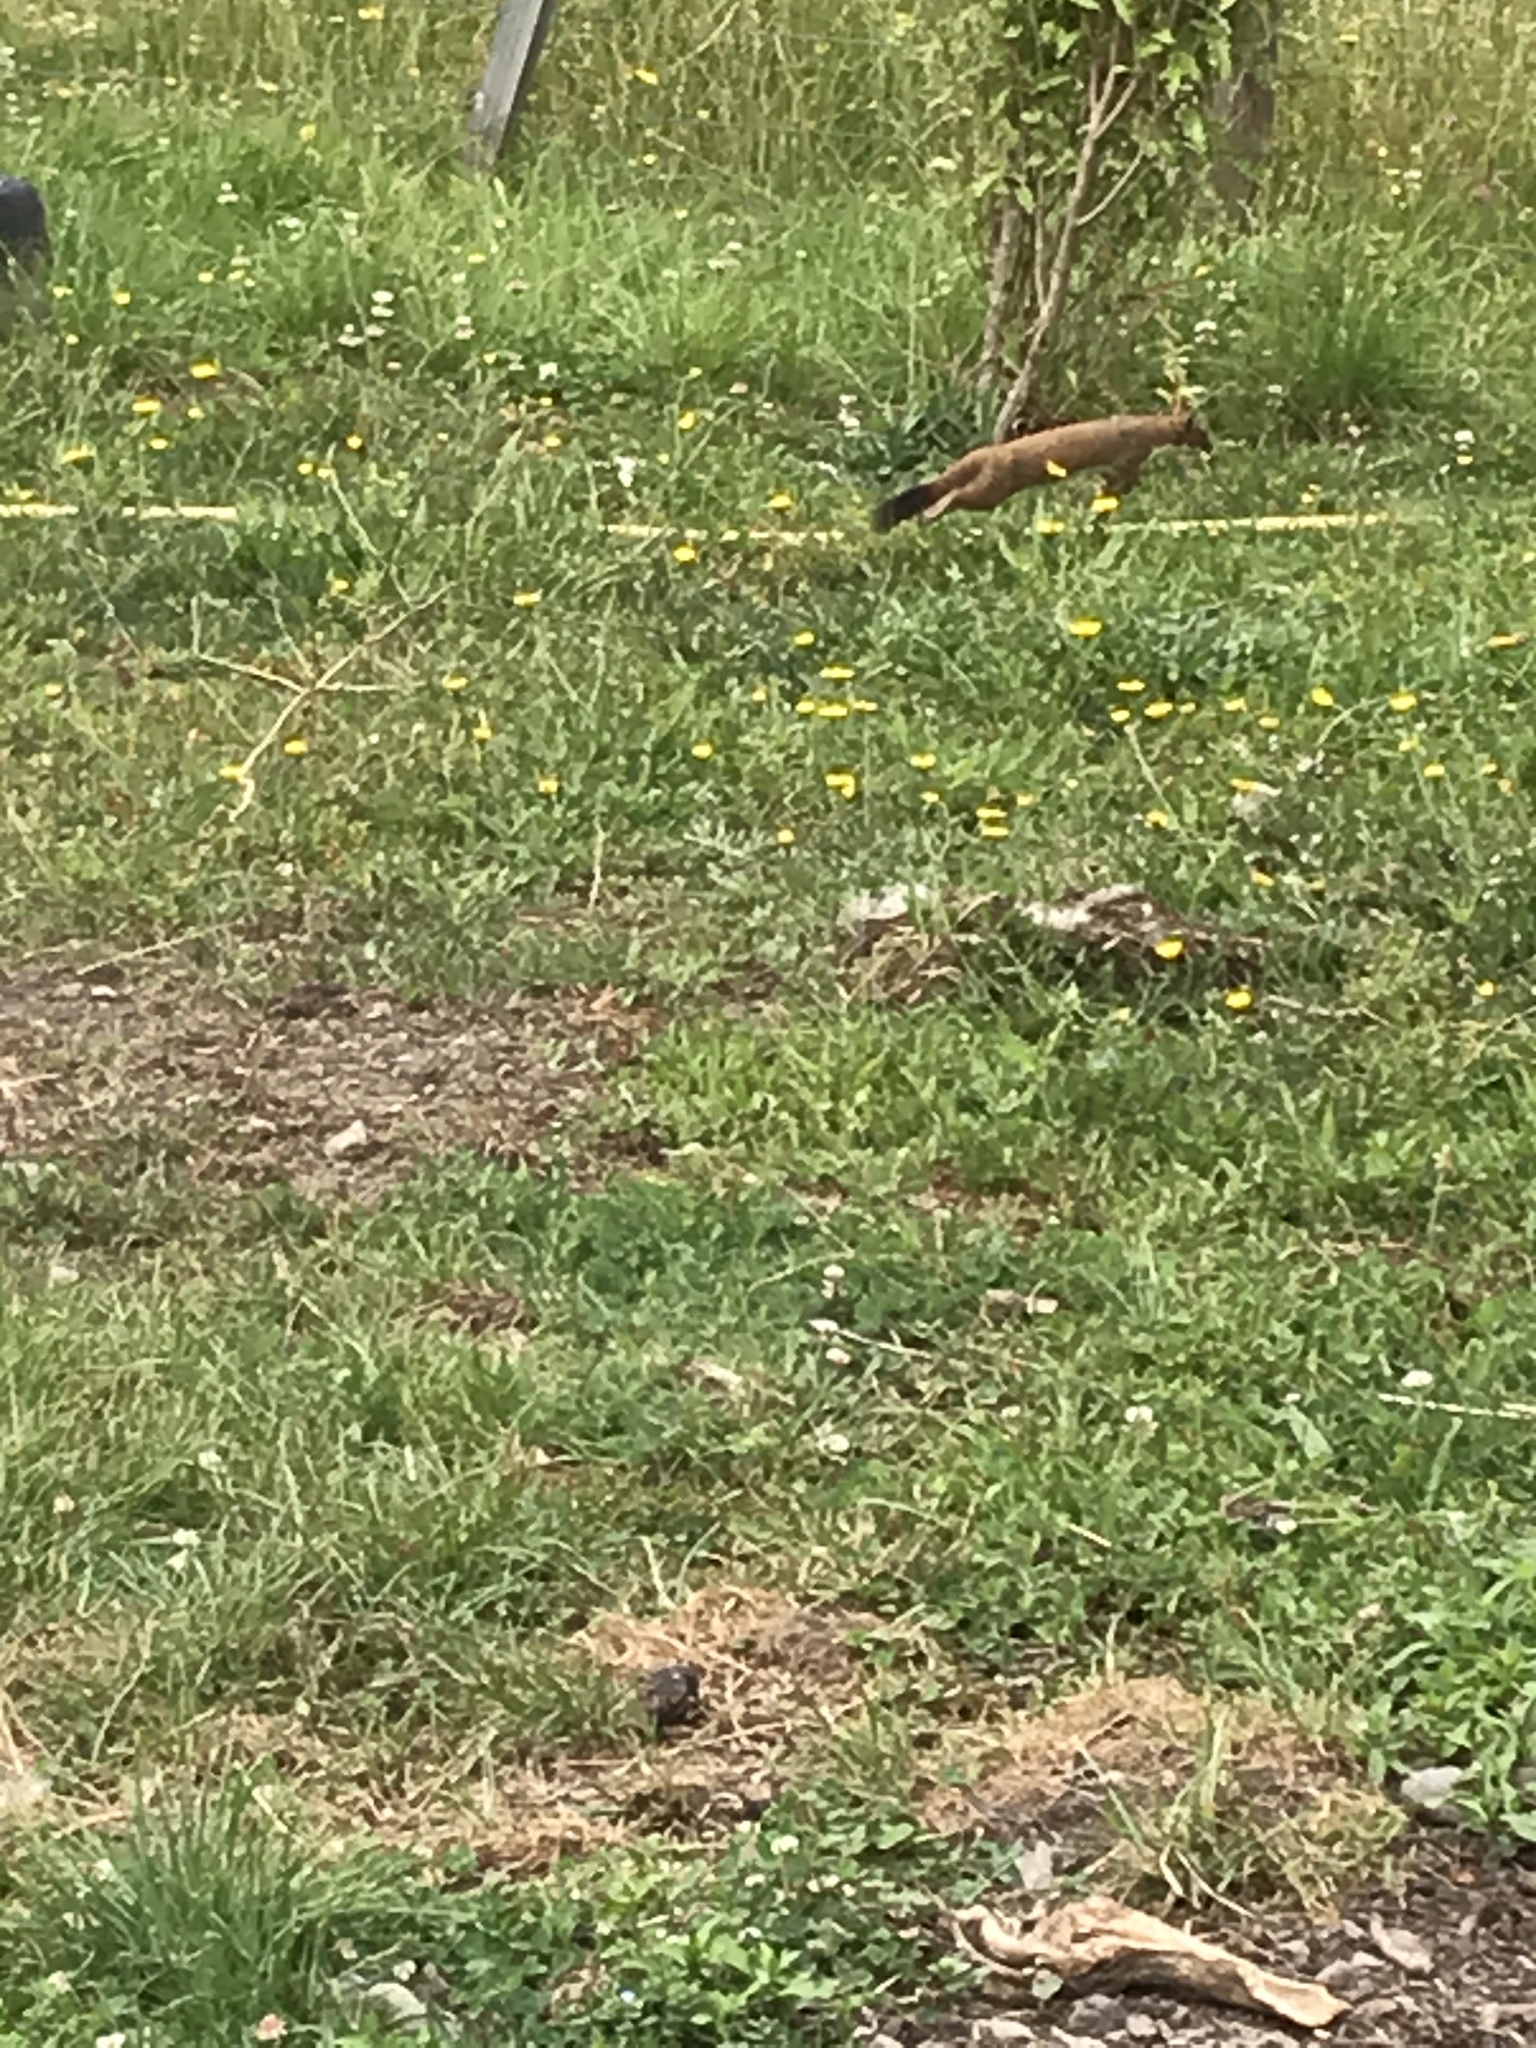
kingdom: Animalia
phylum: Chordata
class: Mammalia
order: Carnivora
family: Mustelidae
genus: Mustela
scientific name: Mustela erminea
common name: Stoat
